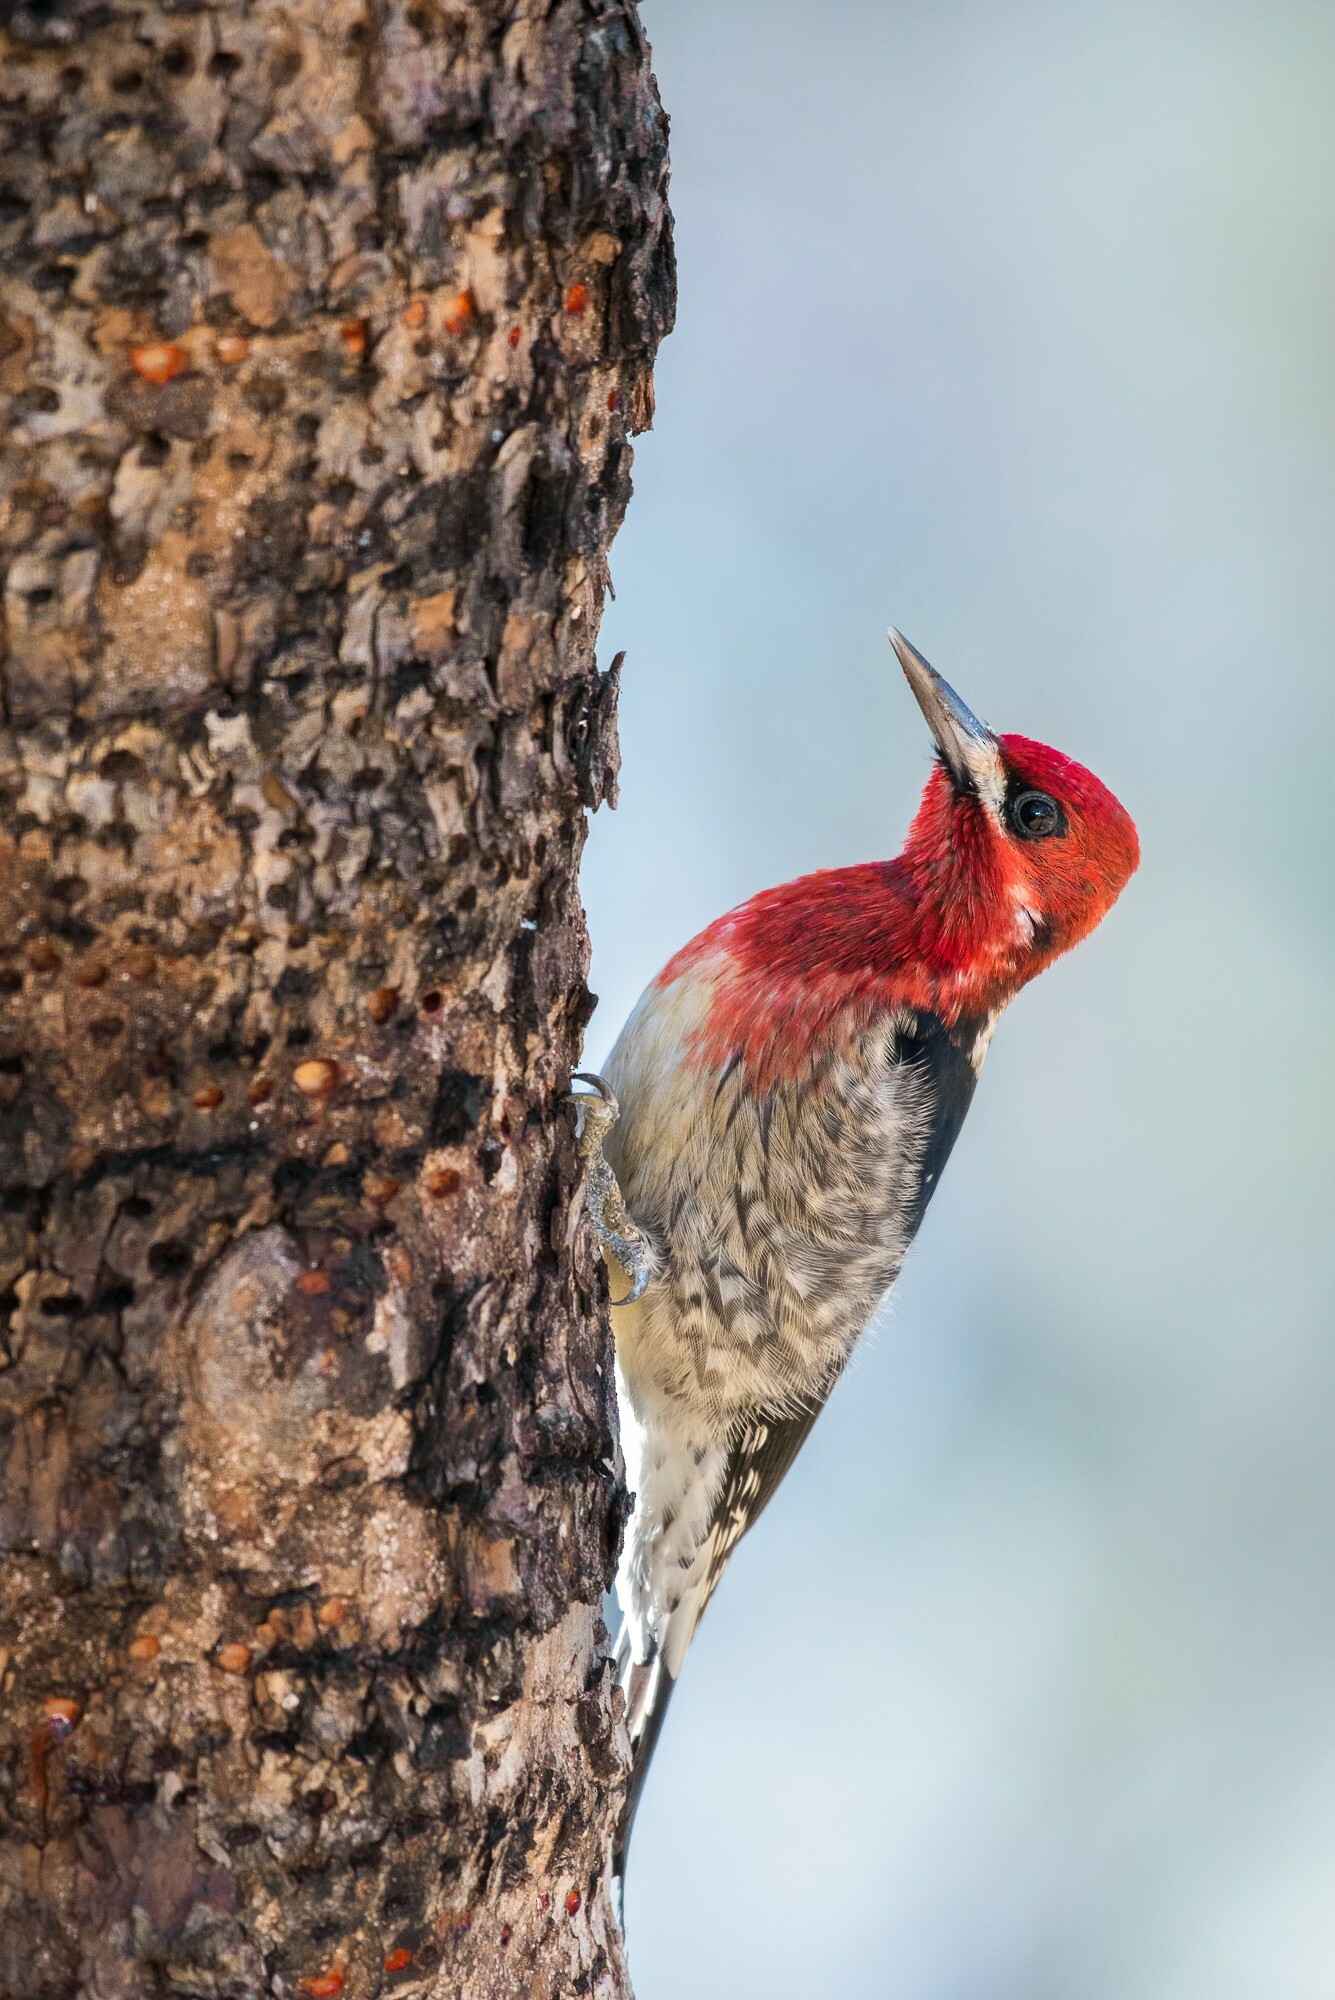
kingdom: Animalia
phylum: Chordata
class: Aves
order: Piciformes
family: Picidae
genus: Sphyrapicus
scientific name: Sphyrapicus ruber
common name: Red-breasted sapsucker
